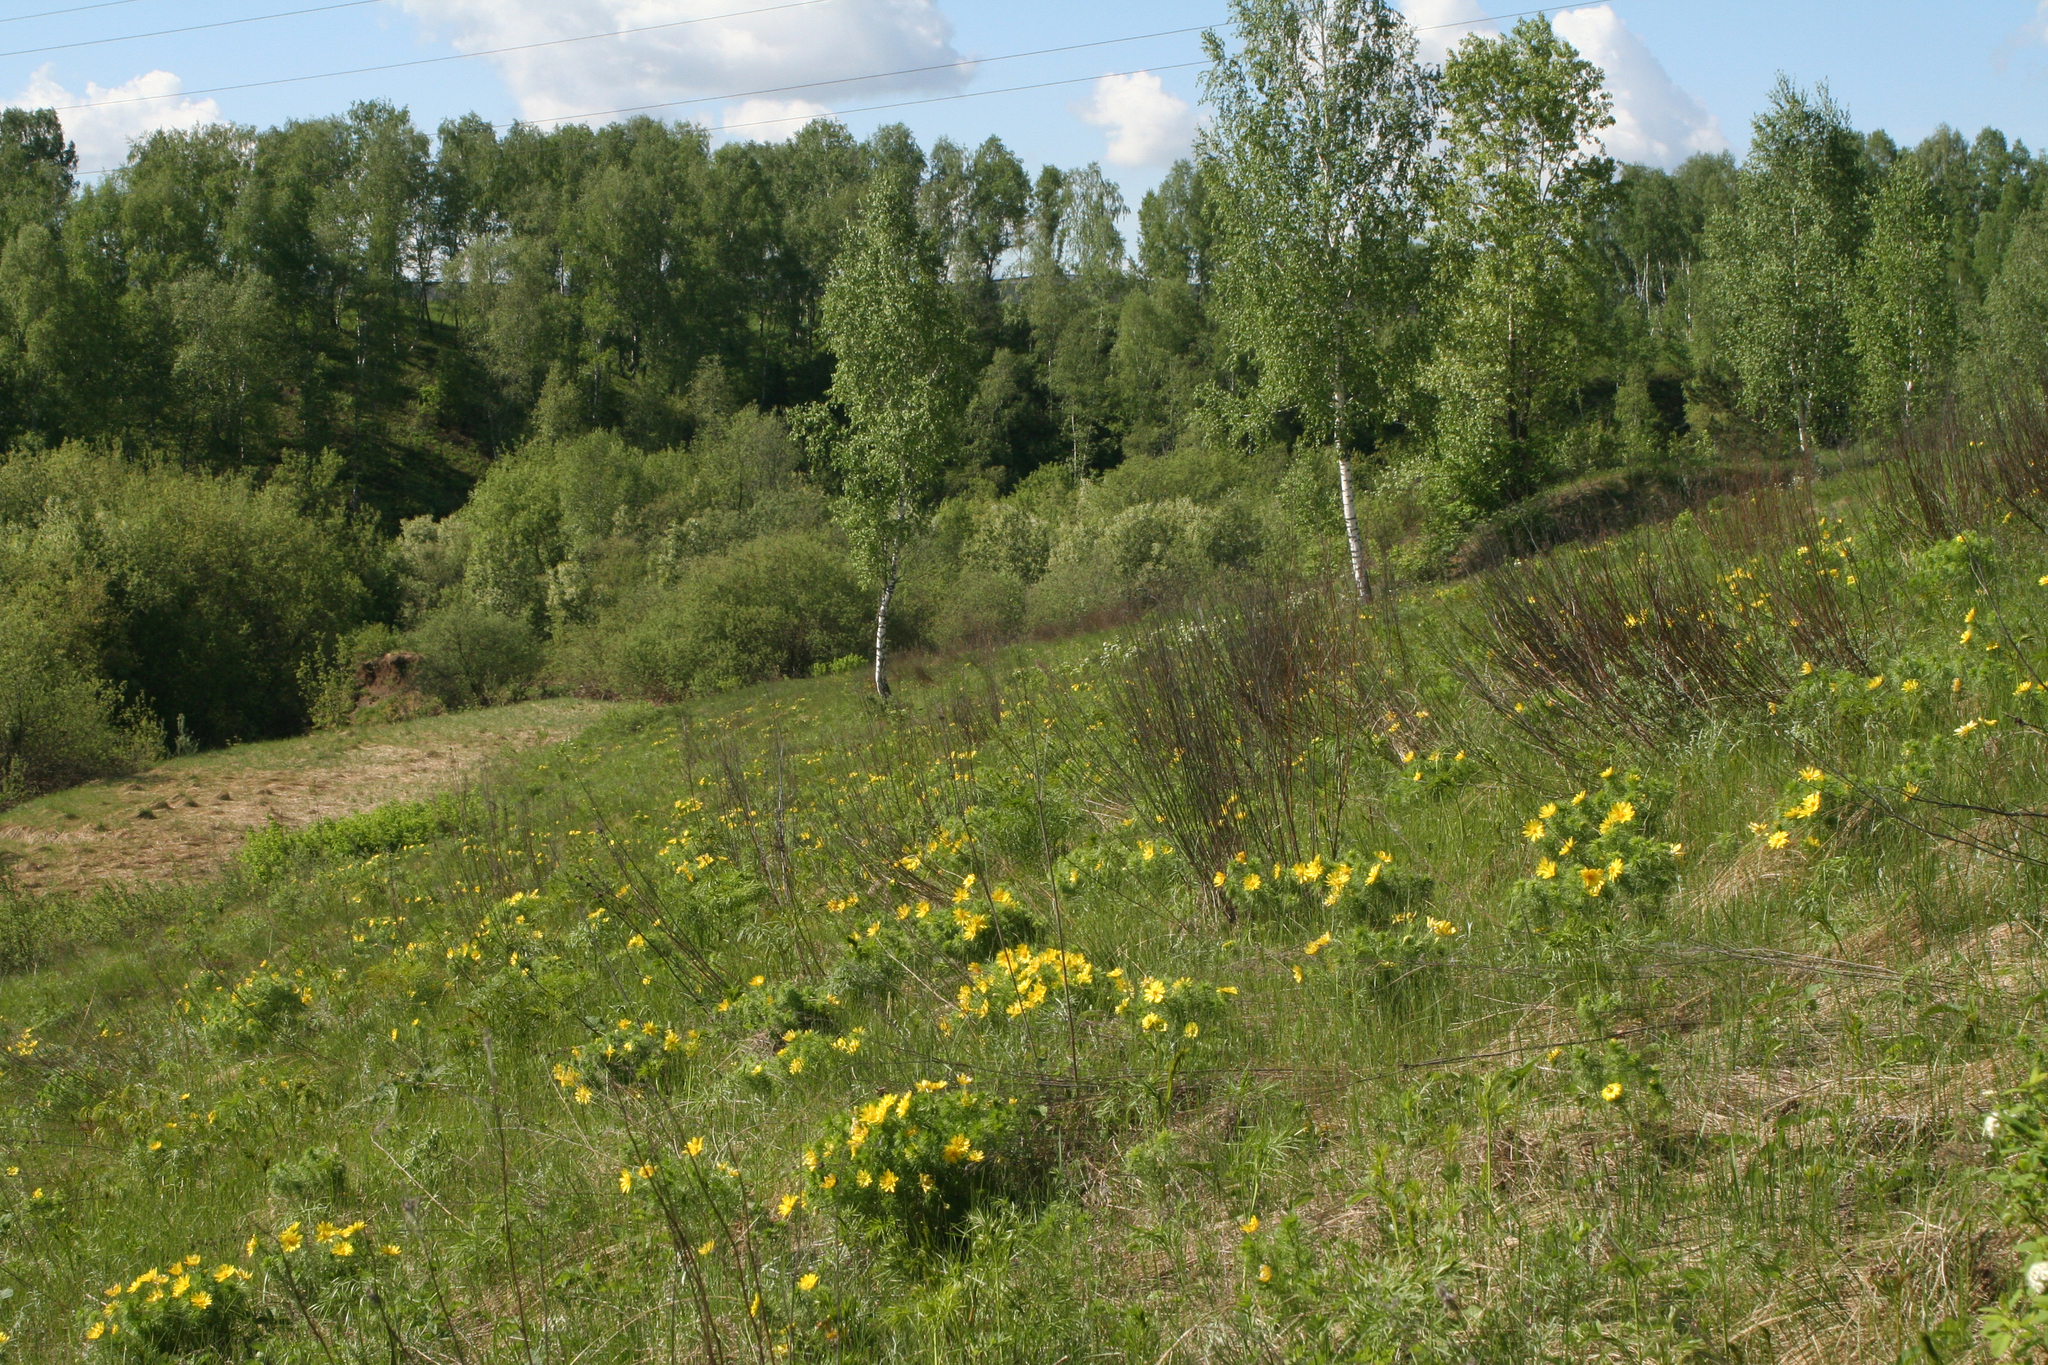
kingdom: Plantae
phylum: Tracheophyta
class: Magnoliopsida
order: Ranunculales
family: Ranunculaceae
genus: Adonis
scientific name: Adonis vernalis
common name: Yellow pheasants-eye
